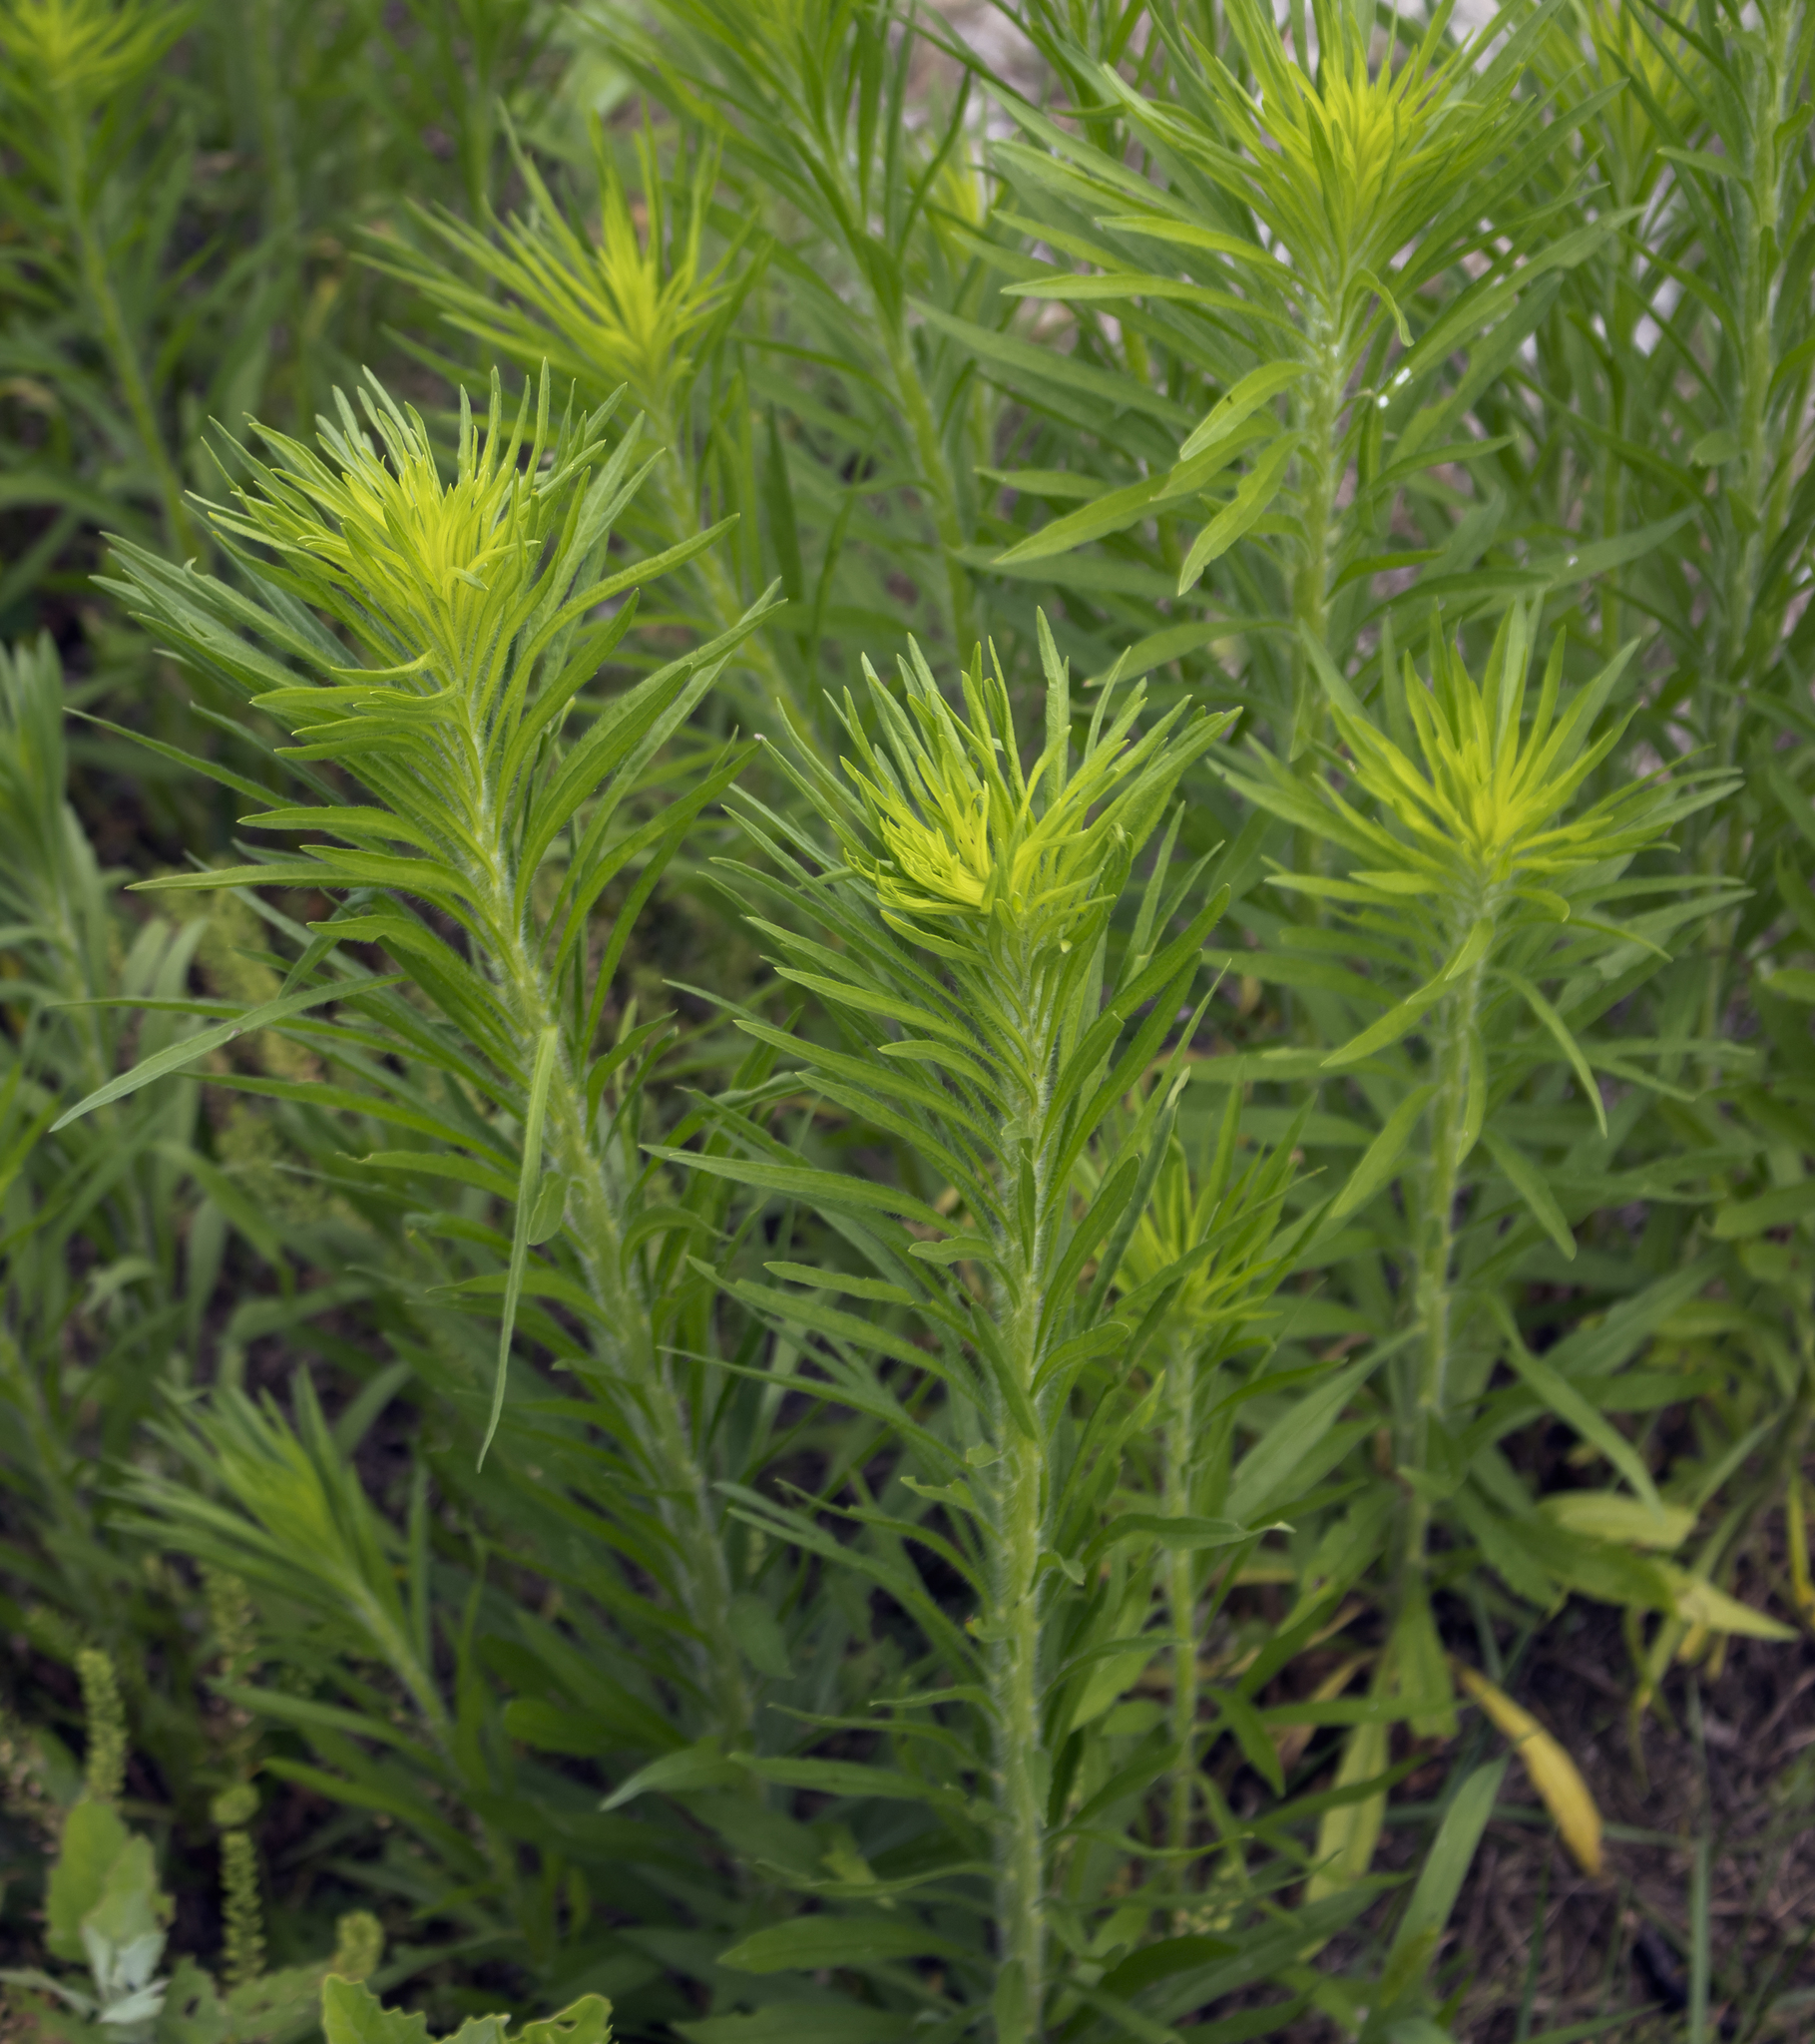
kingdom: Plantae
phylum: Tracheophyta
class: Magnoliopsida
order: Asterales
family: Asteraceae
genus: Erigeron
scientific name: Erigeron canadensis
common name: Canadian fleabane
